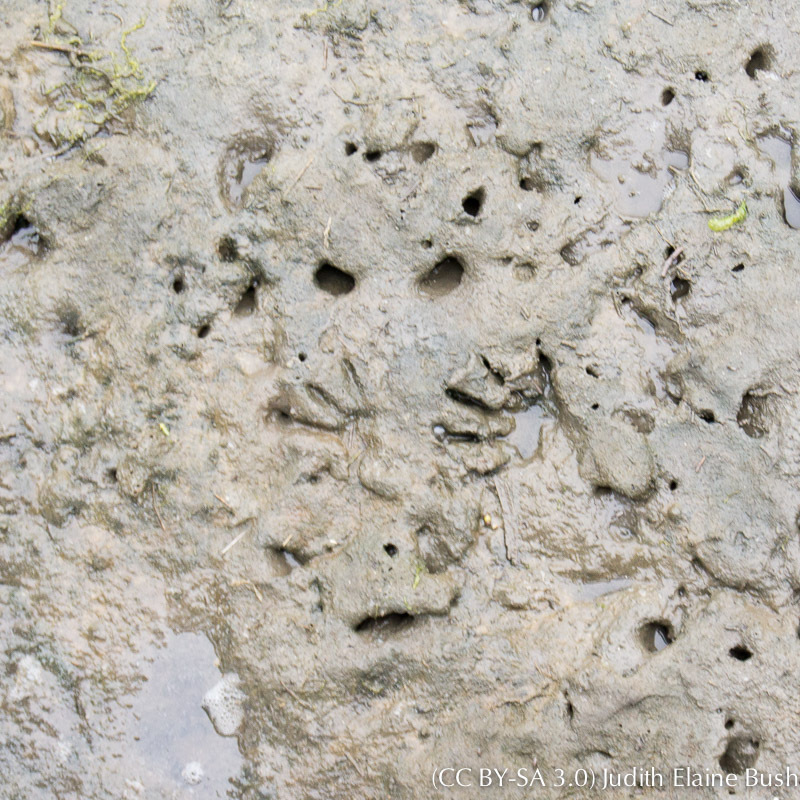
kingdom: Animalia
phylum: Chordata
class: Mammalia
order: Carnivora
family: Procyonidae
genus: Procyon
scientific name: Procyon lotor
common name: Raccoon
